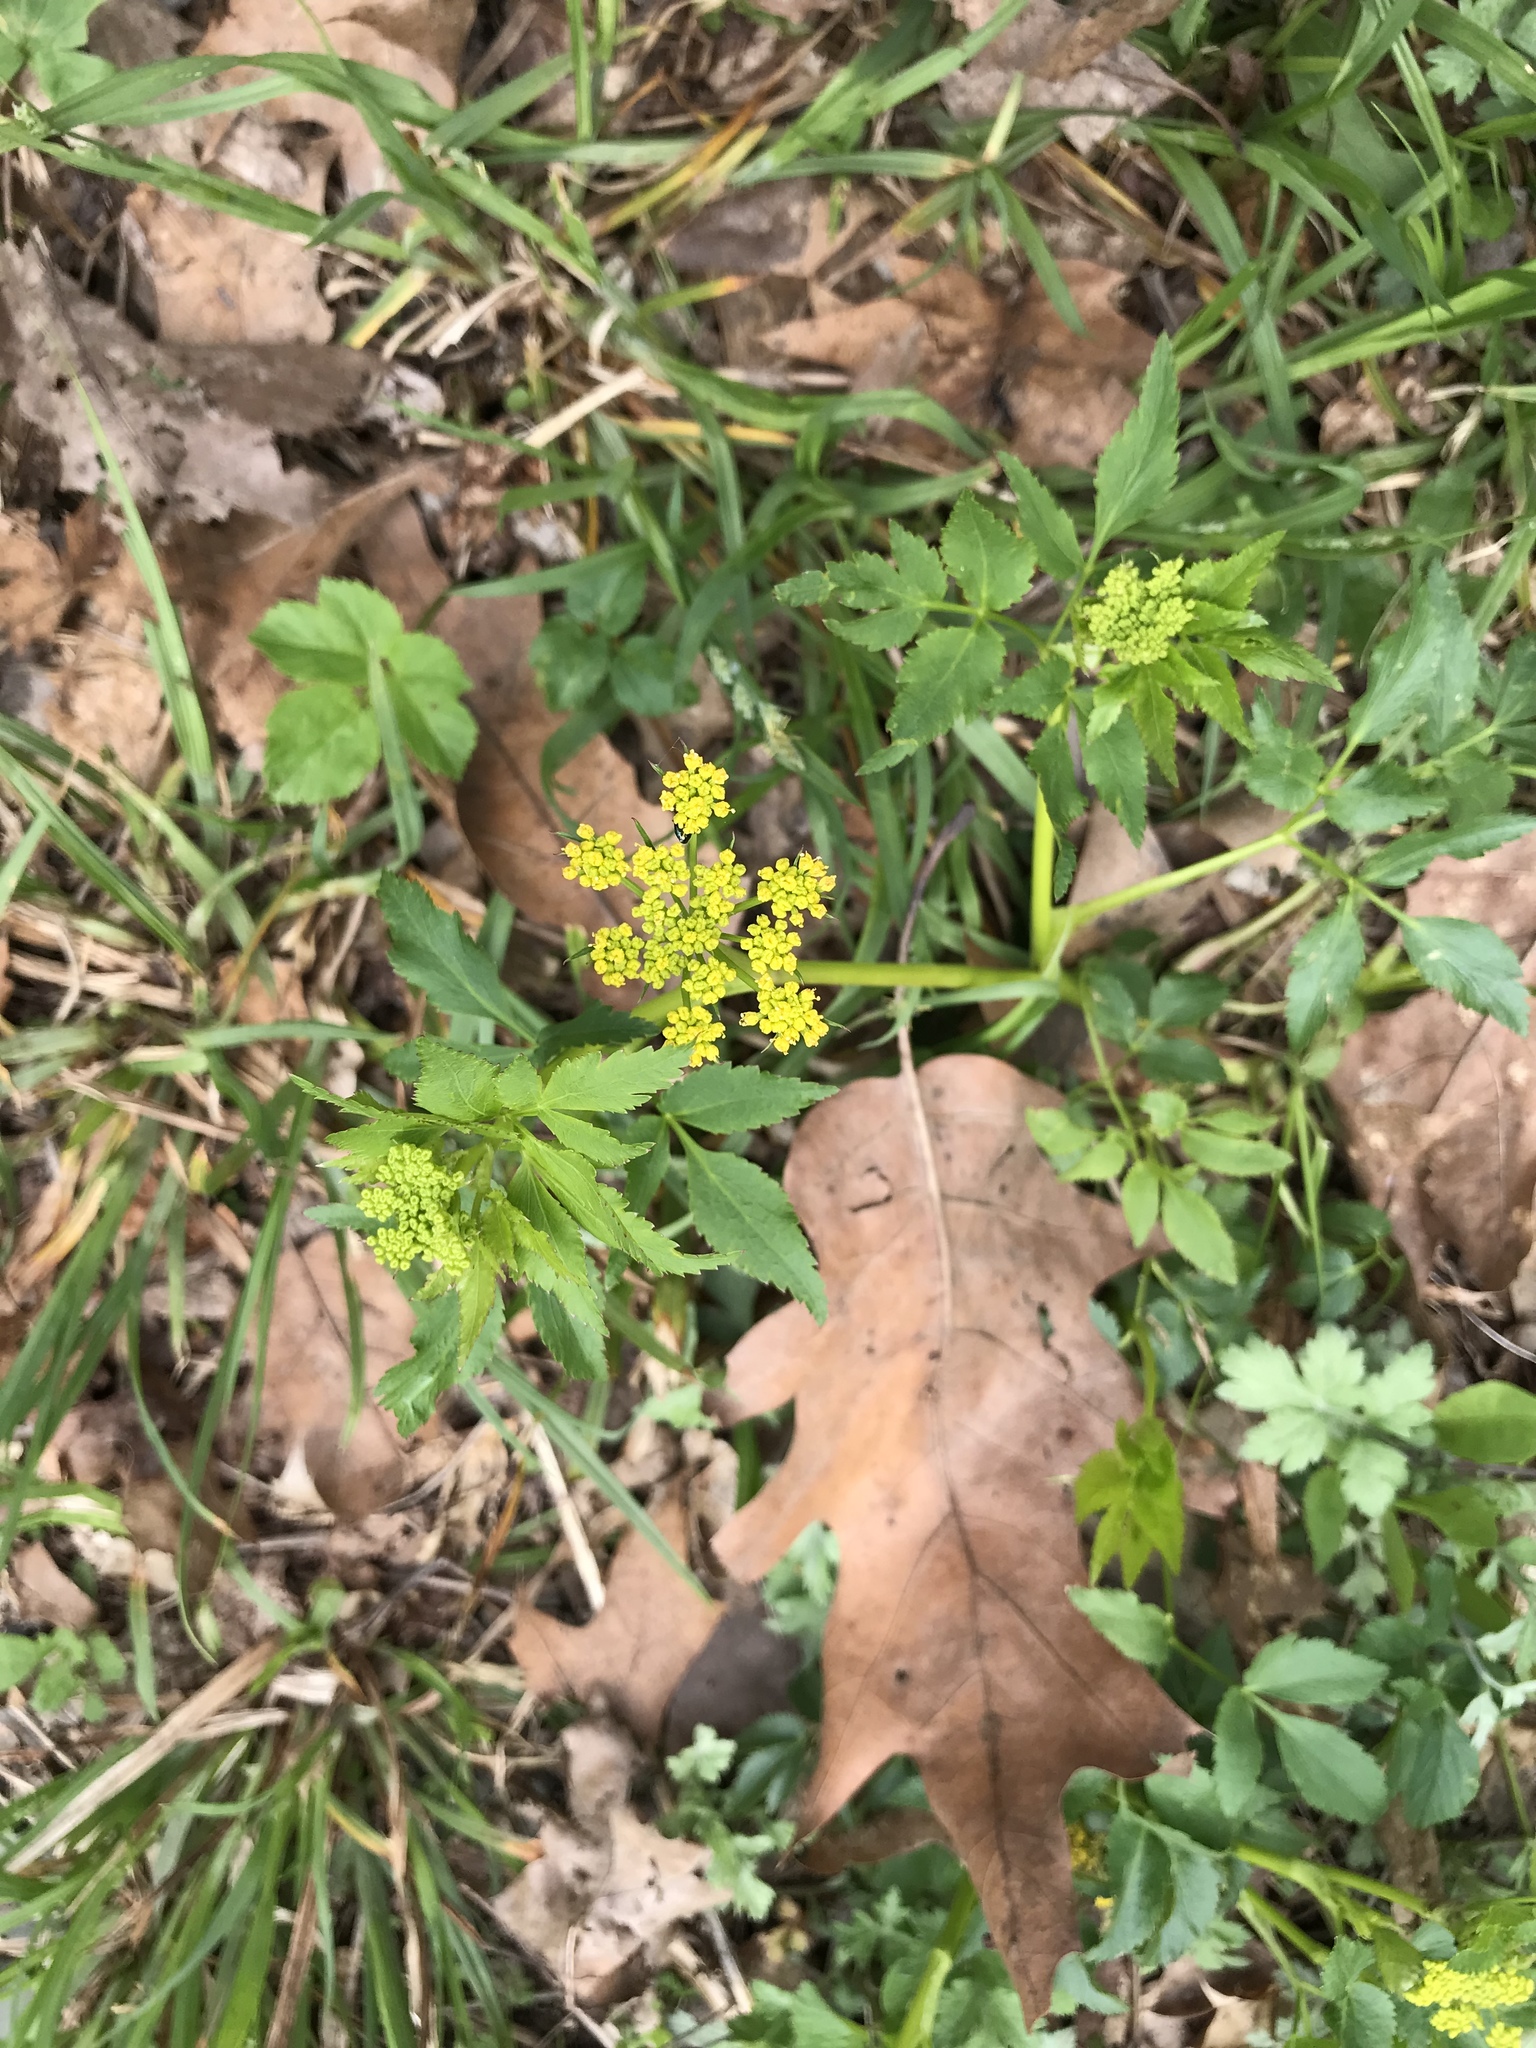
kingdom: Plantae
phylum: Tracheophyta
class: Magnoliopsida
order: Apiales
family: Apiaceae
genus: Zizia
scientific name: Zizia aurea
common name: Golden alexanders
